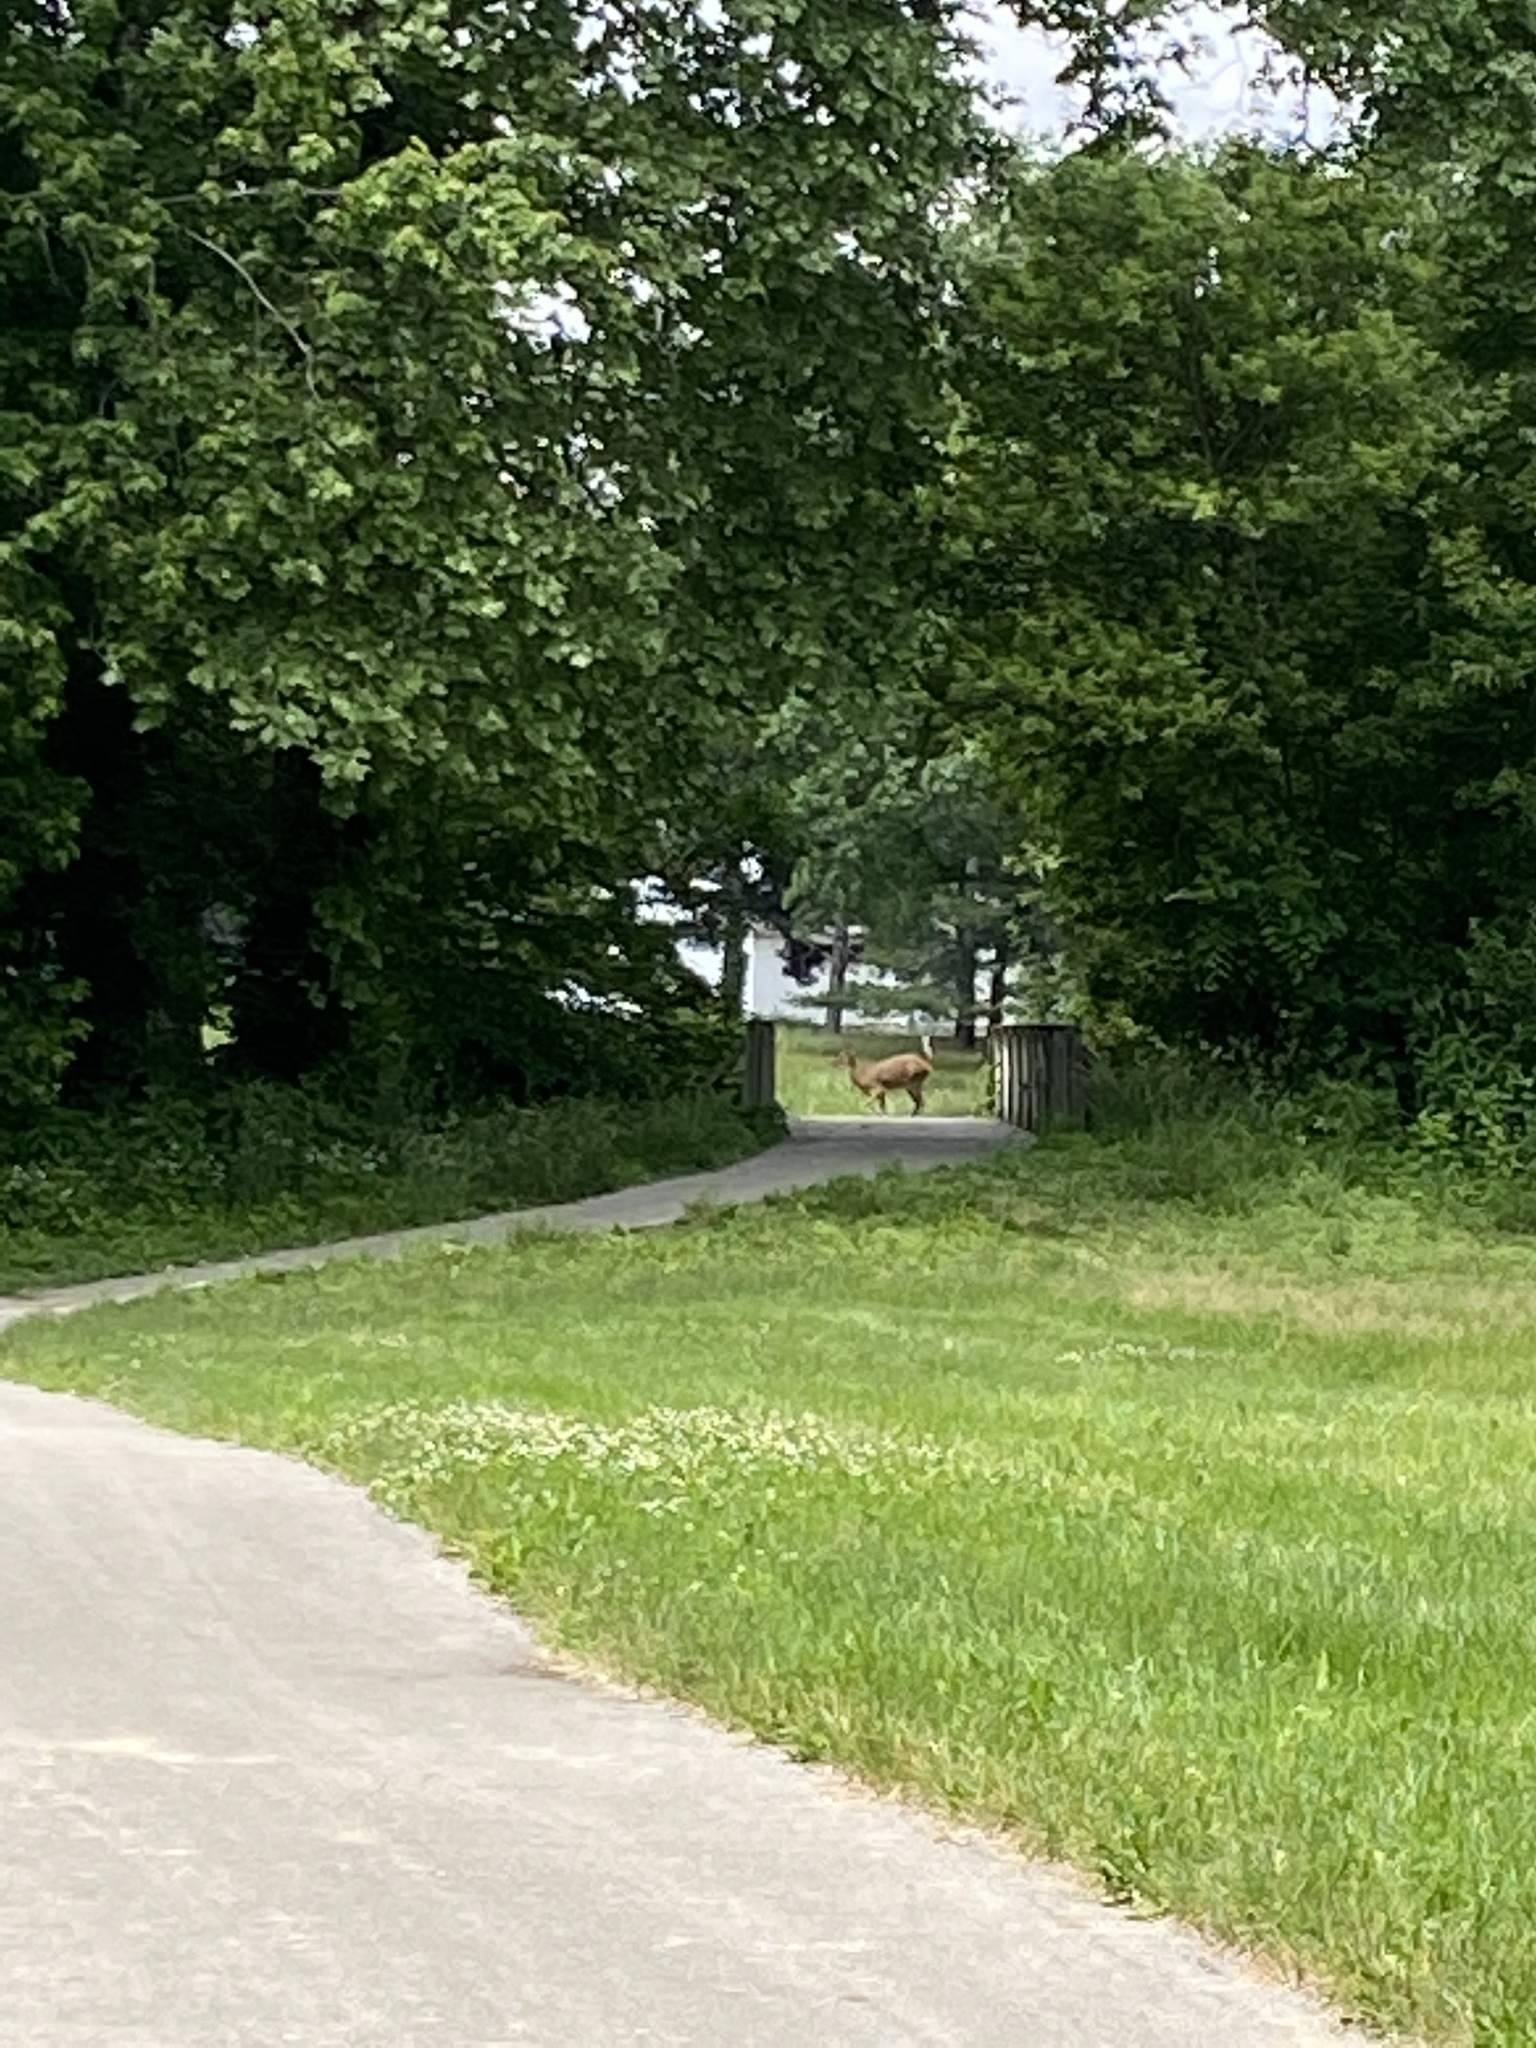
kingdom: Animalia
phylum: Chordata
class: Mammalia
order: Artiodactyla
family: Cervidae
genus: Odocoileus
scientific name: Odocoileus virginianus
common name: White-tailed deer
